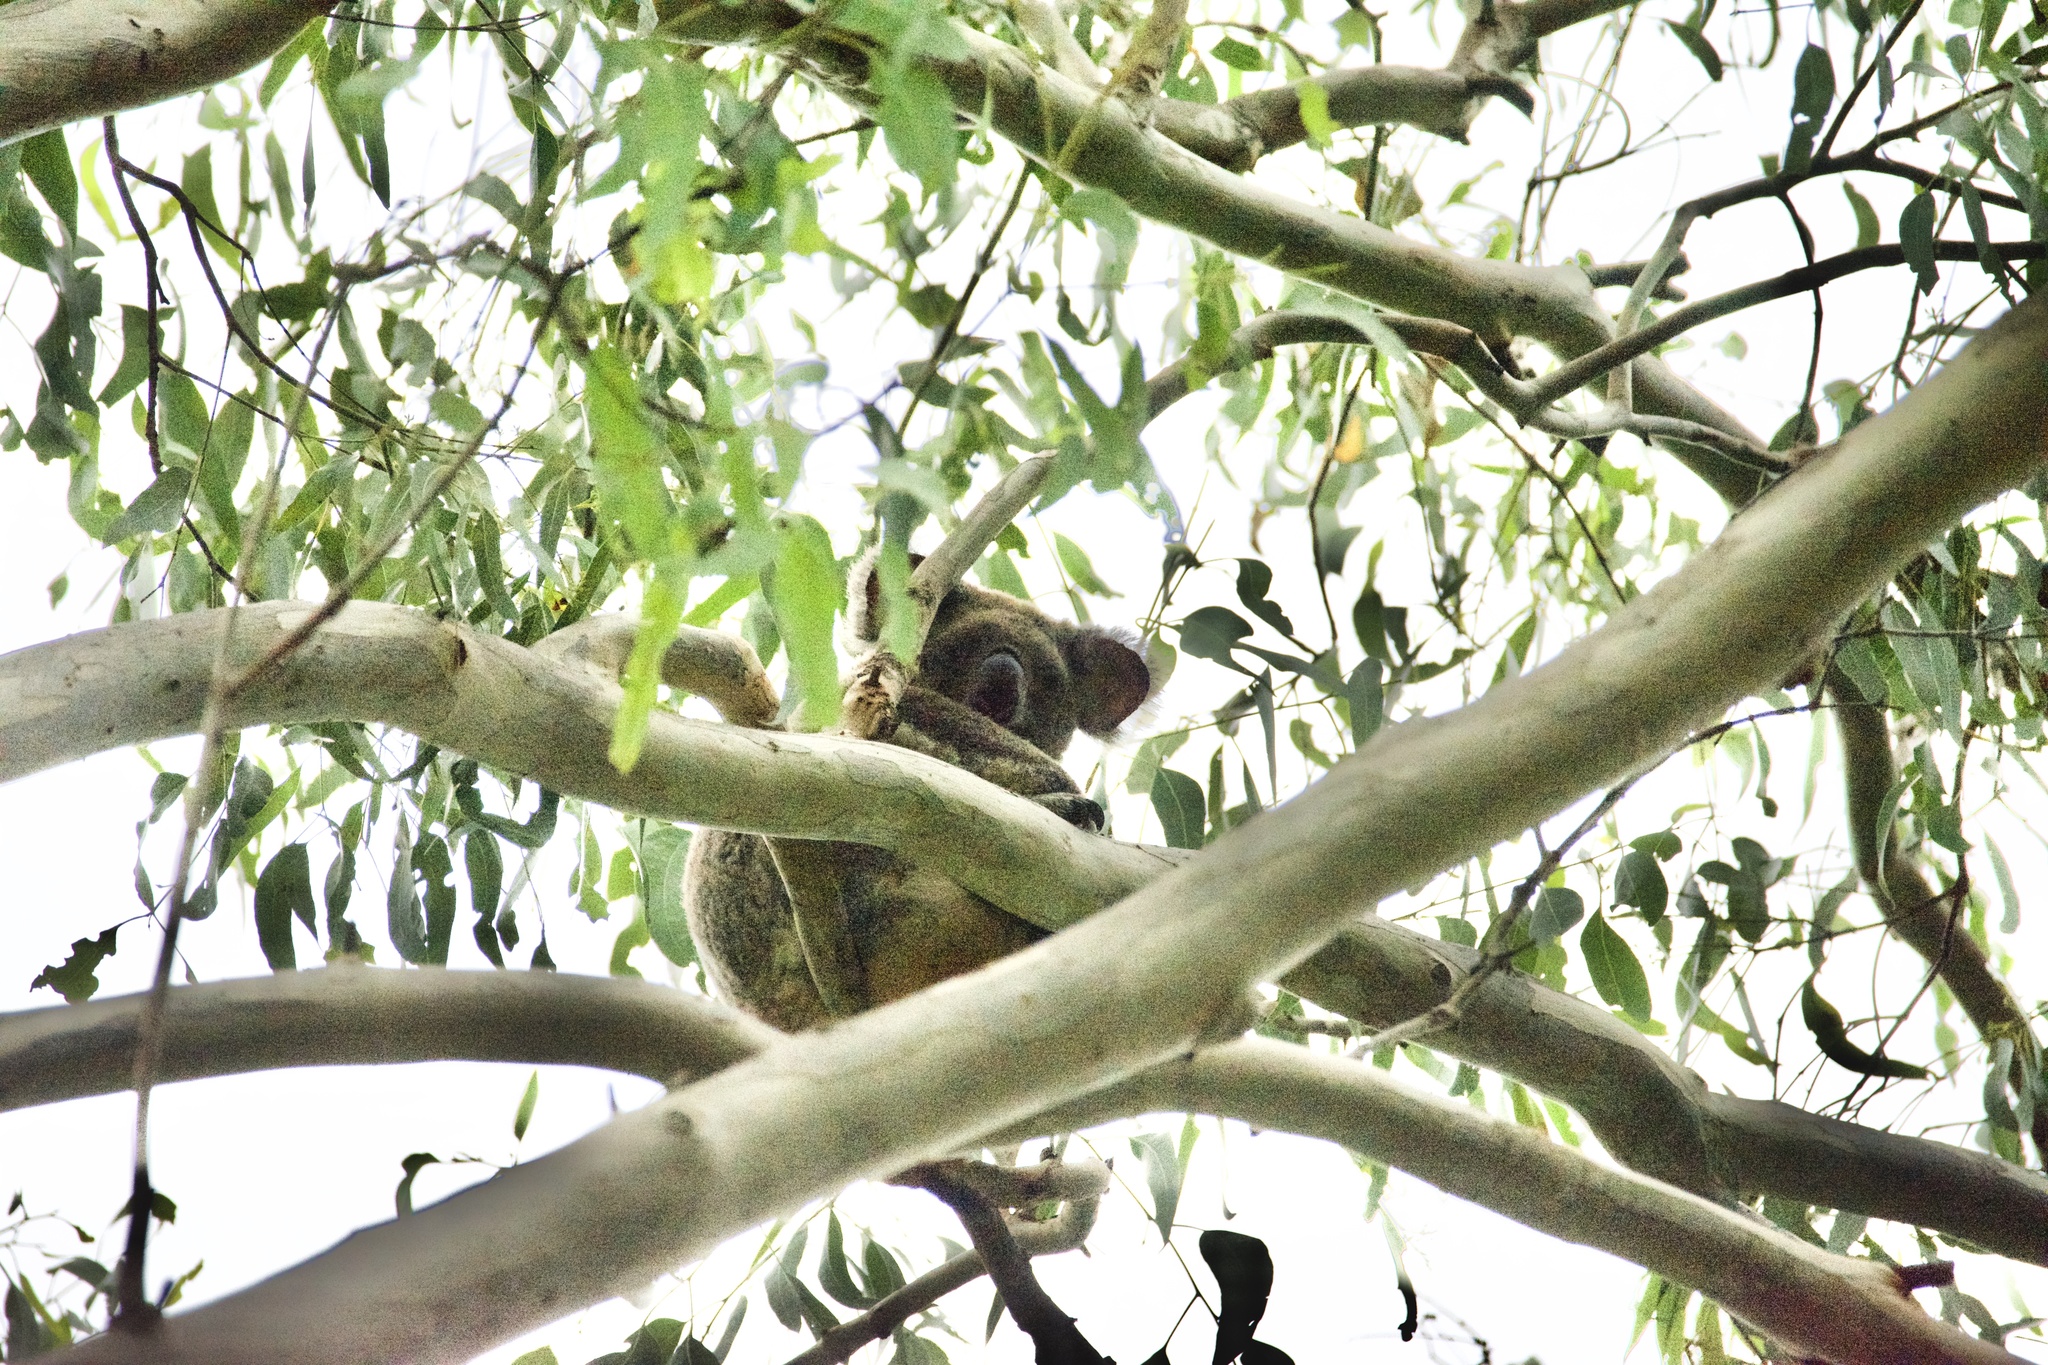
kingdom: Animalia
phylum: Chordata
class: Mammalia
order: Diprotodontia
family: Phascolarctidae
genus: Phascolarctos
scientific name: Phascolarctos cinereus
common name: Koala
